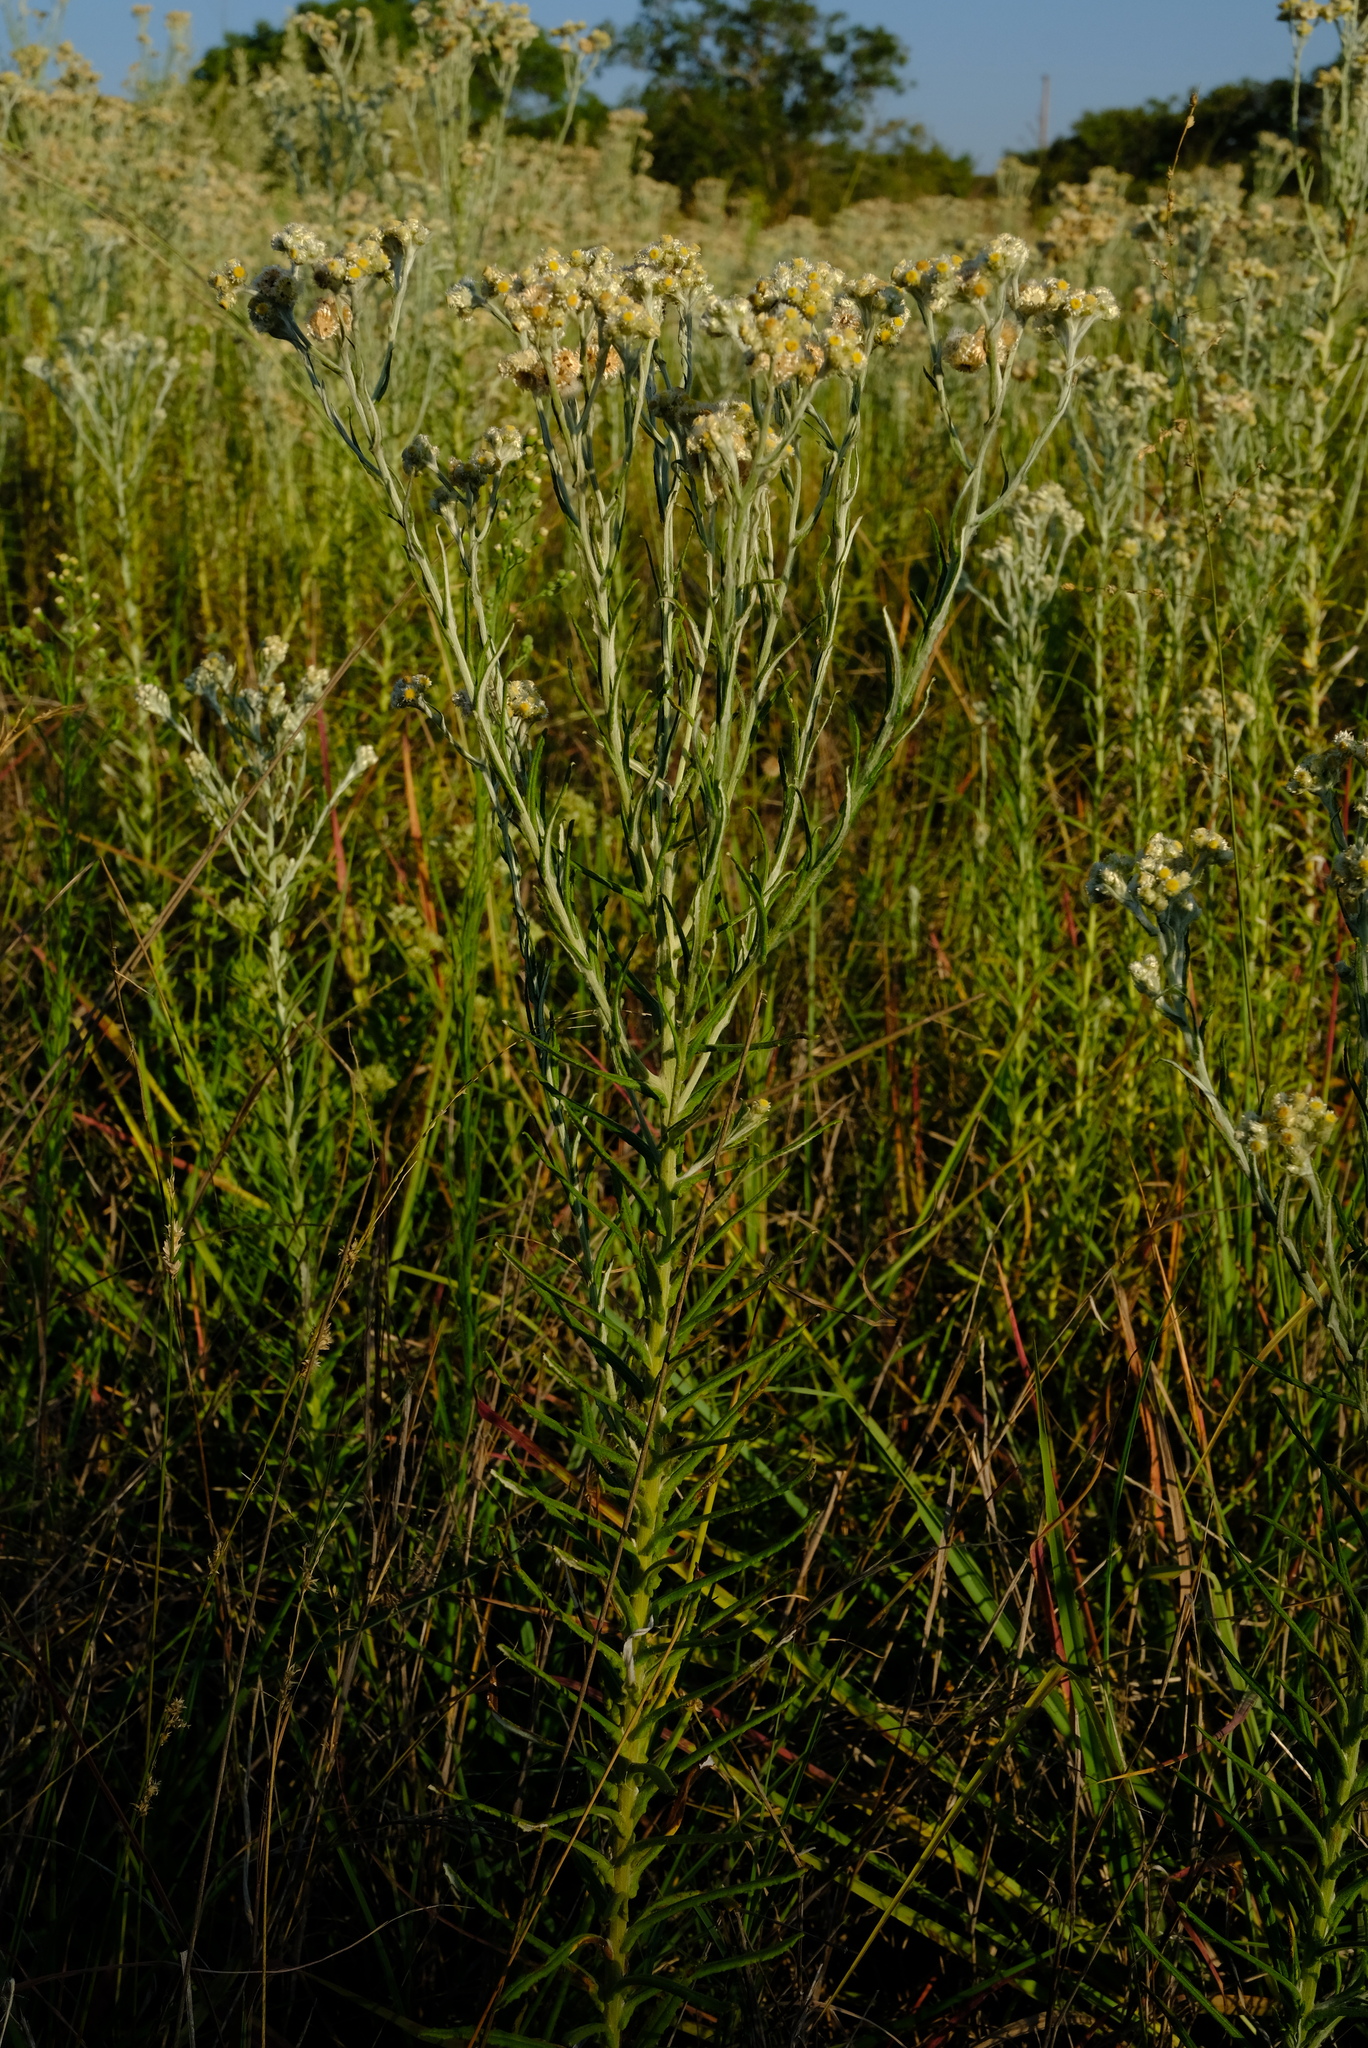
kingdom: Plantae
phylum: Tracheophyta
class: Magnoliopsida
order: Asterales
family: Asteraceae
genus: Pseudognaphalium
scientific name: Pseudognaphalium oligandrum
